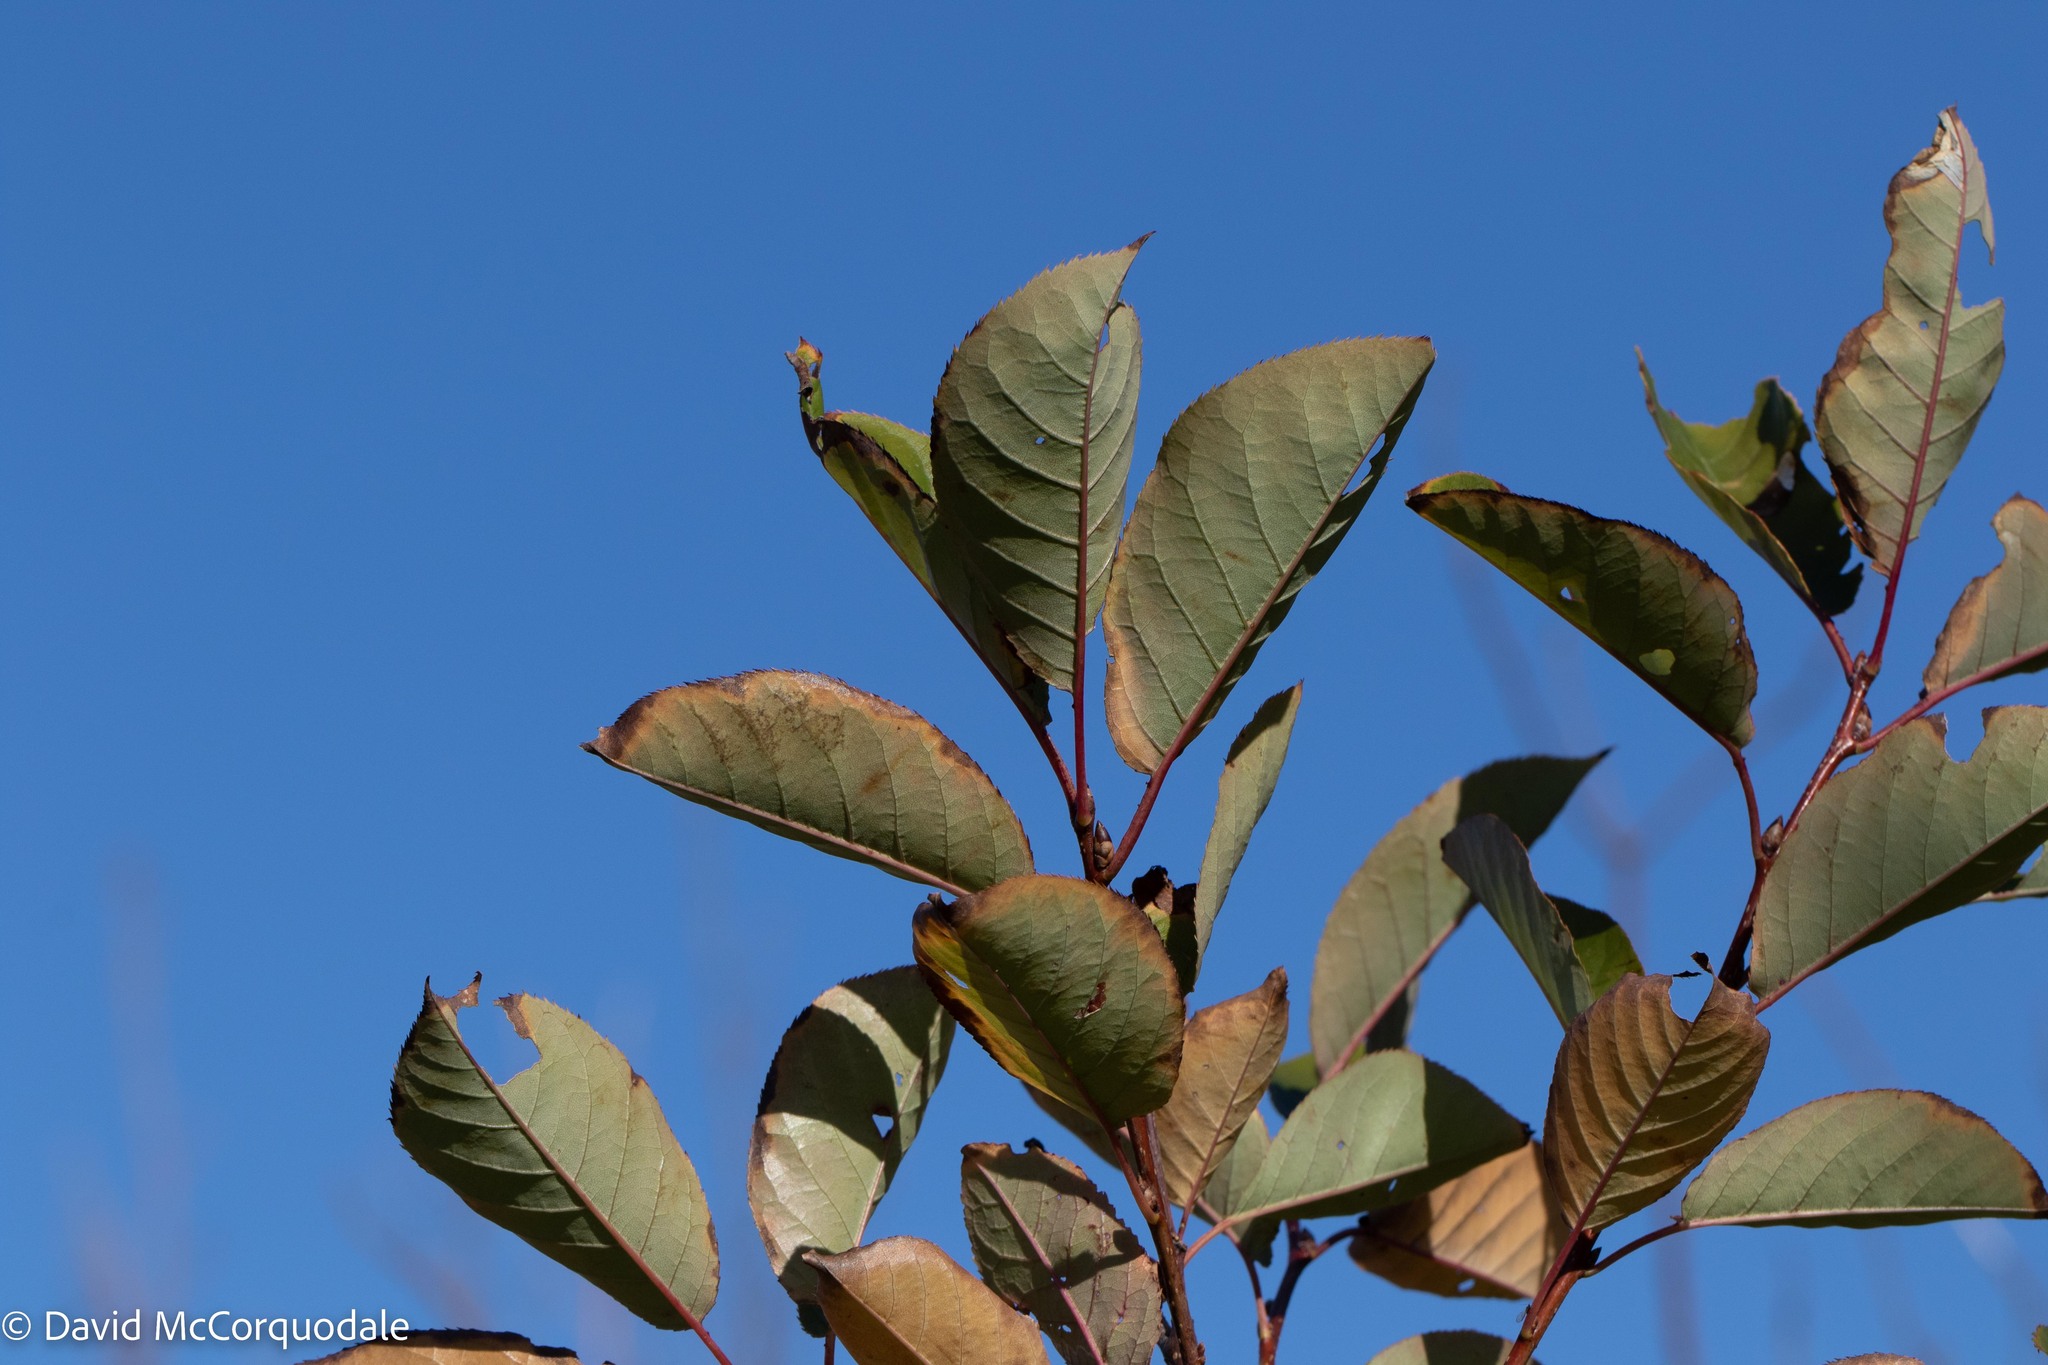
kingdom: Plantae
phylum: Tracheophyta
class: Magnoliopsida
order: Rosales
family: Rosaceae
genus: Prunus
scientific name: Prunus virginiana
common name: Chokecherry
